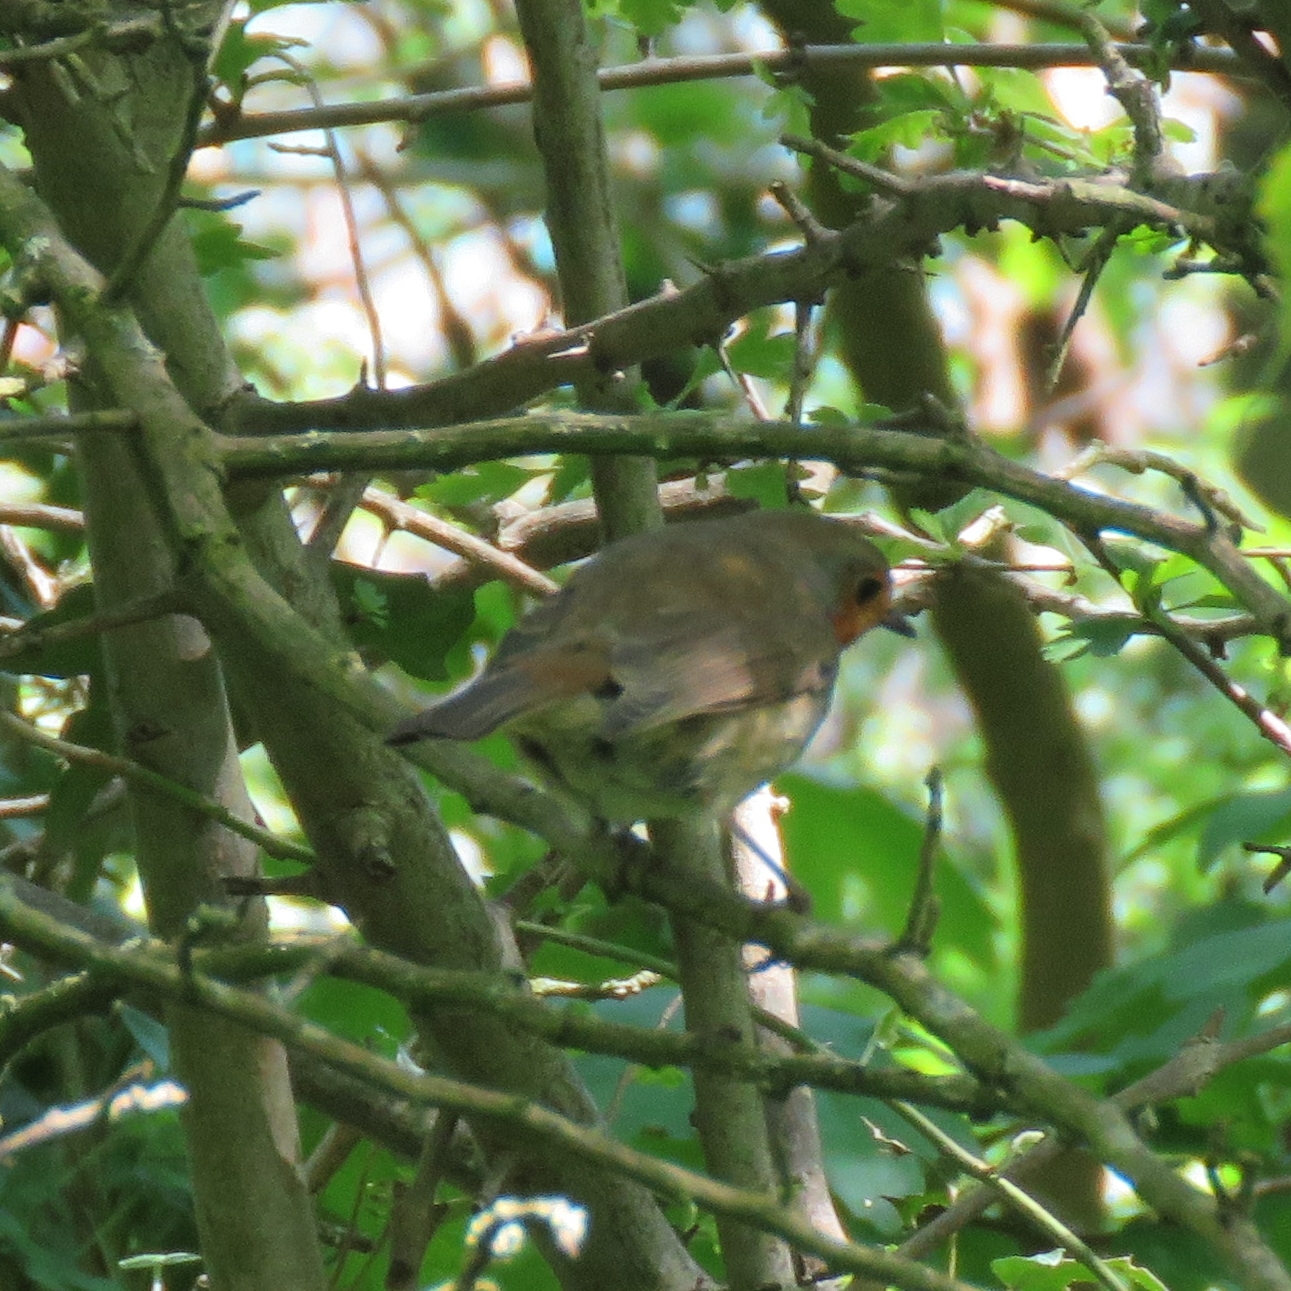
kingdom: Animalia
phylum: Chordata
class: Aves
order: Passeriformes
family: Muscicapidae
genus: Erithacus
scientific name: Erithacus rubecula
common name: European robin
